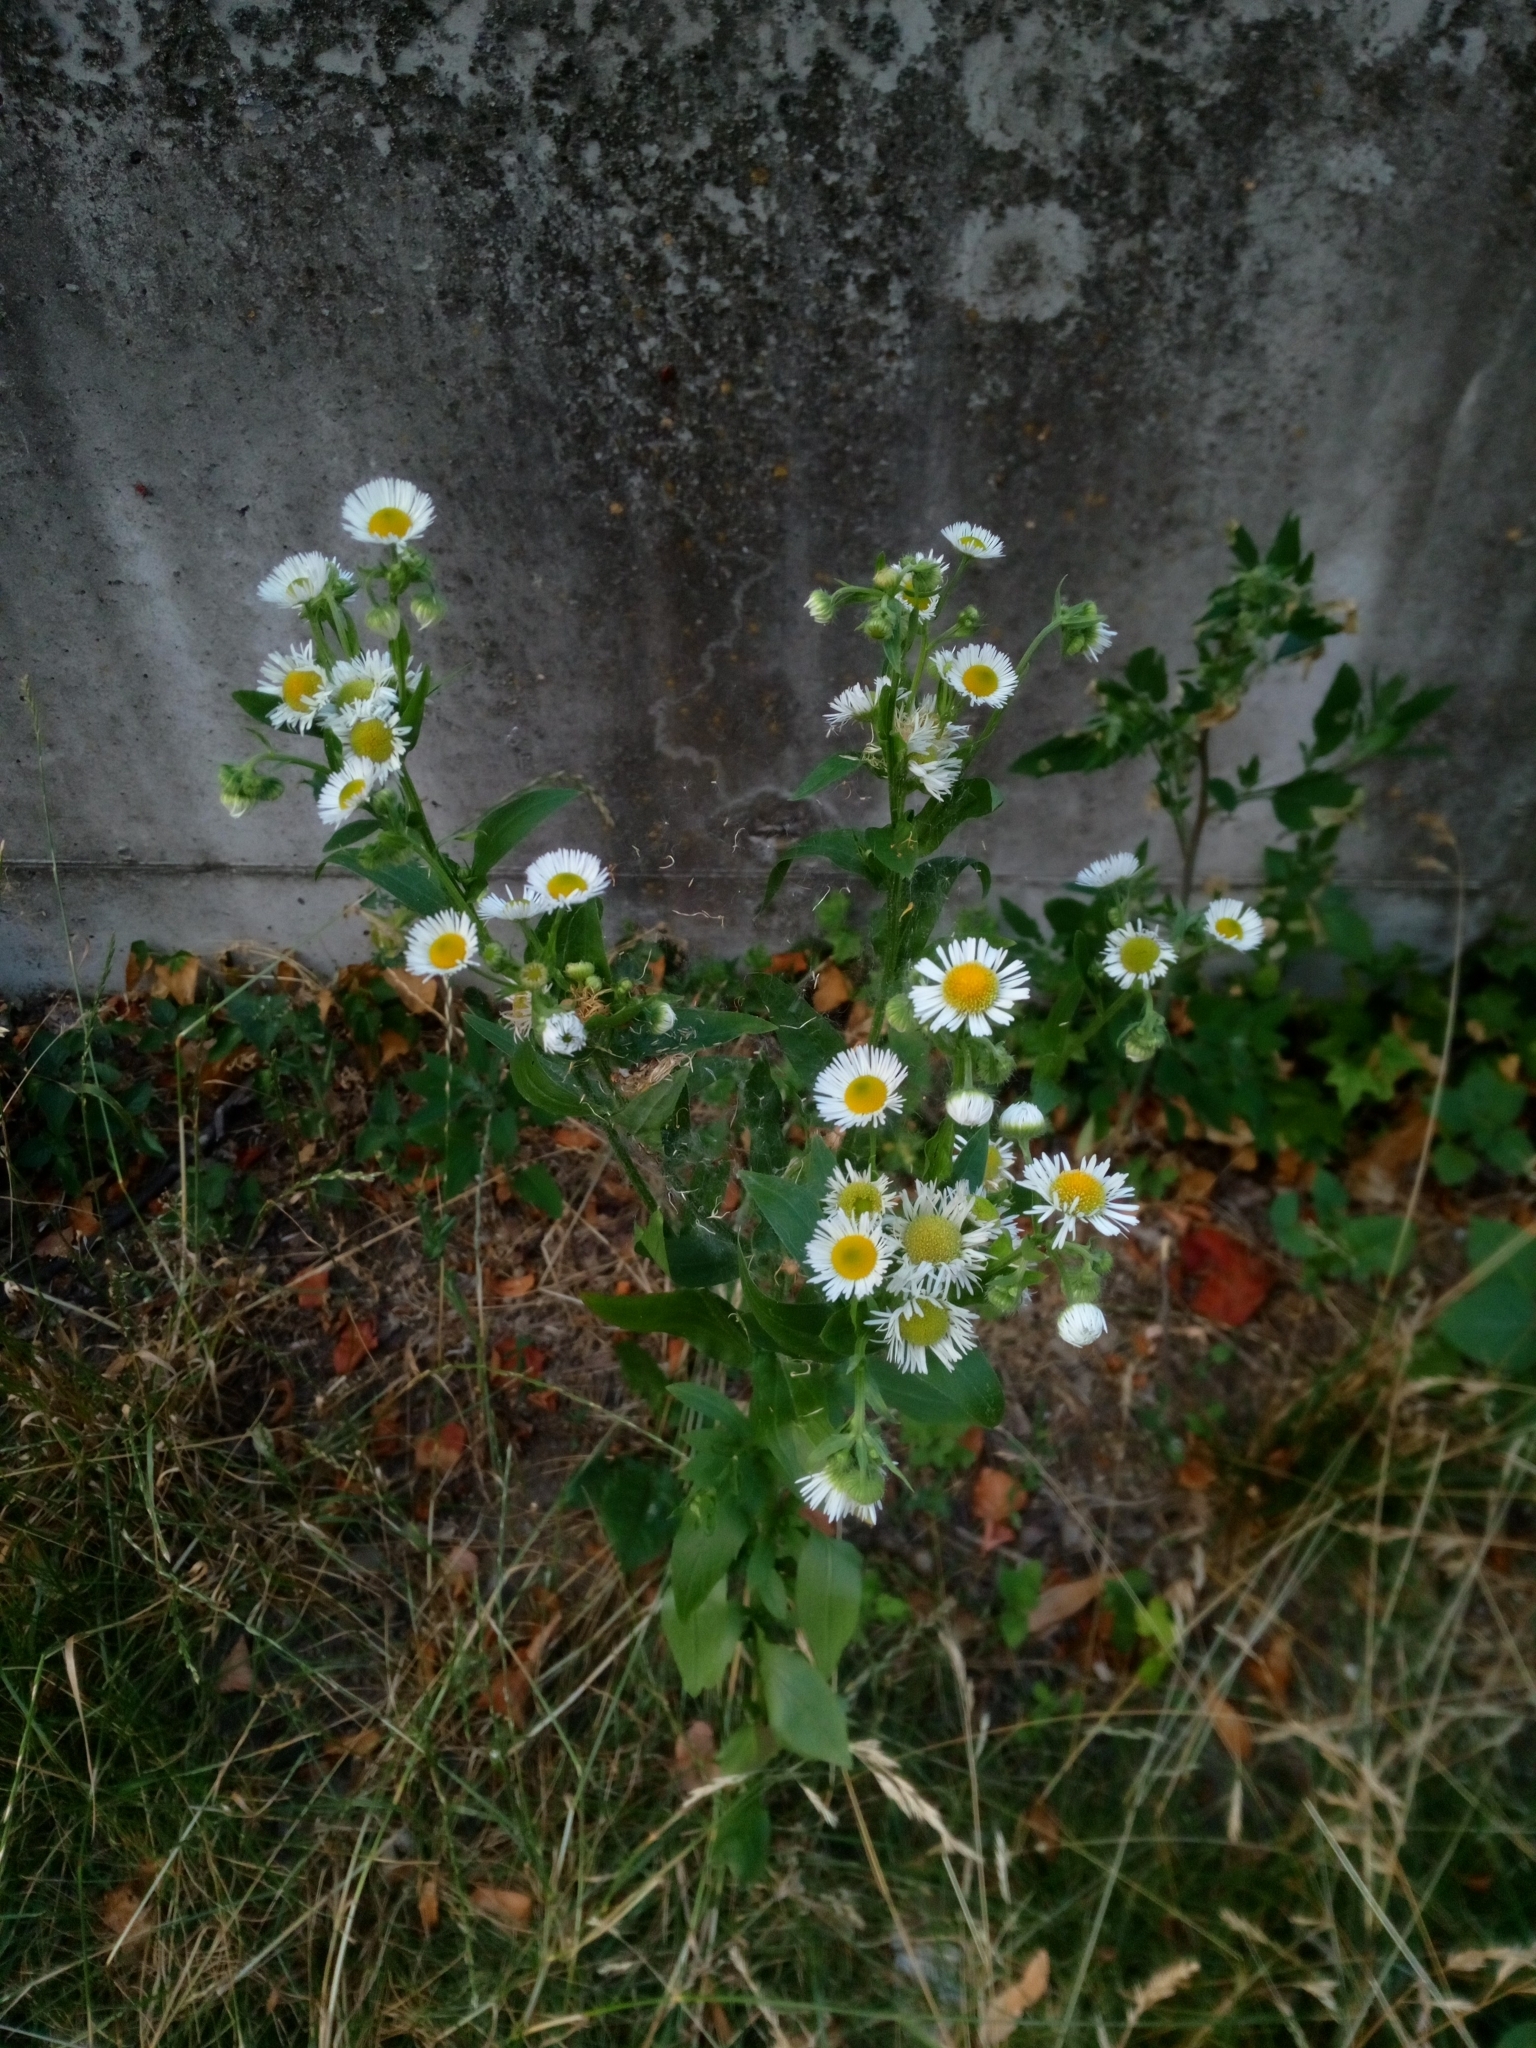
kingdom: Plantae
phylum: Tracheophyta
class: Magnoliopsida
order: Asterales
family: Asteraceae
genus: Erigeron
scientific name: Erigeron annuus
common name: Tall fleabane
